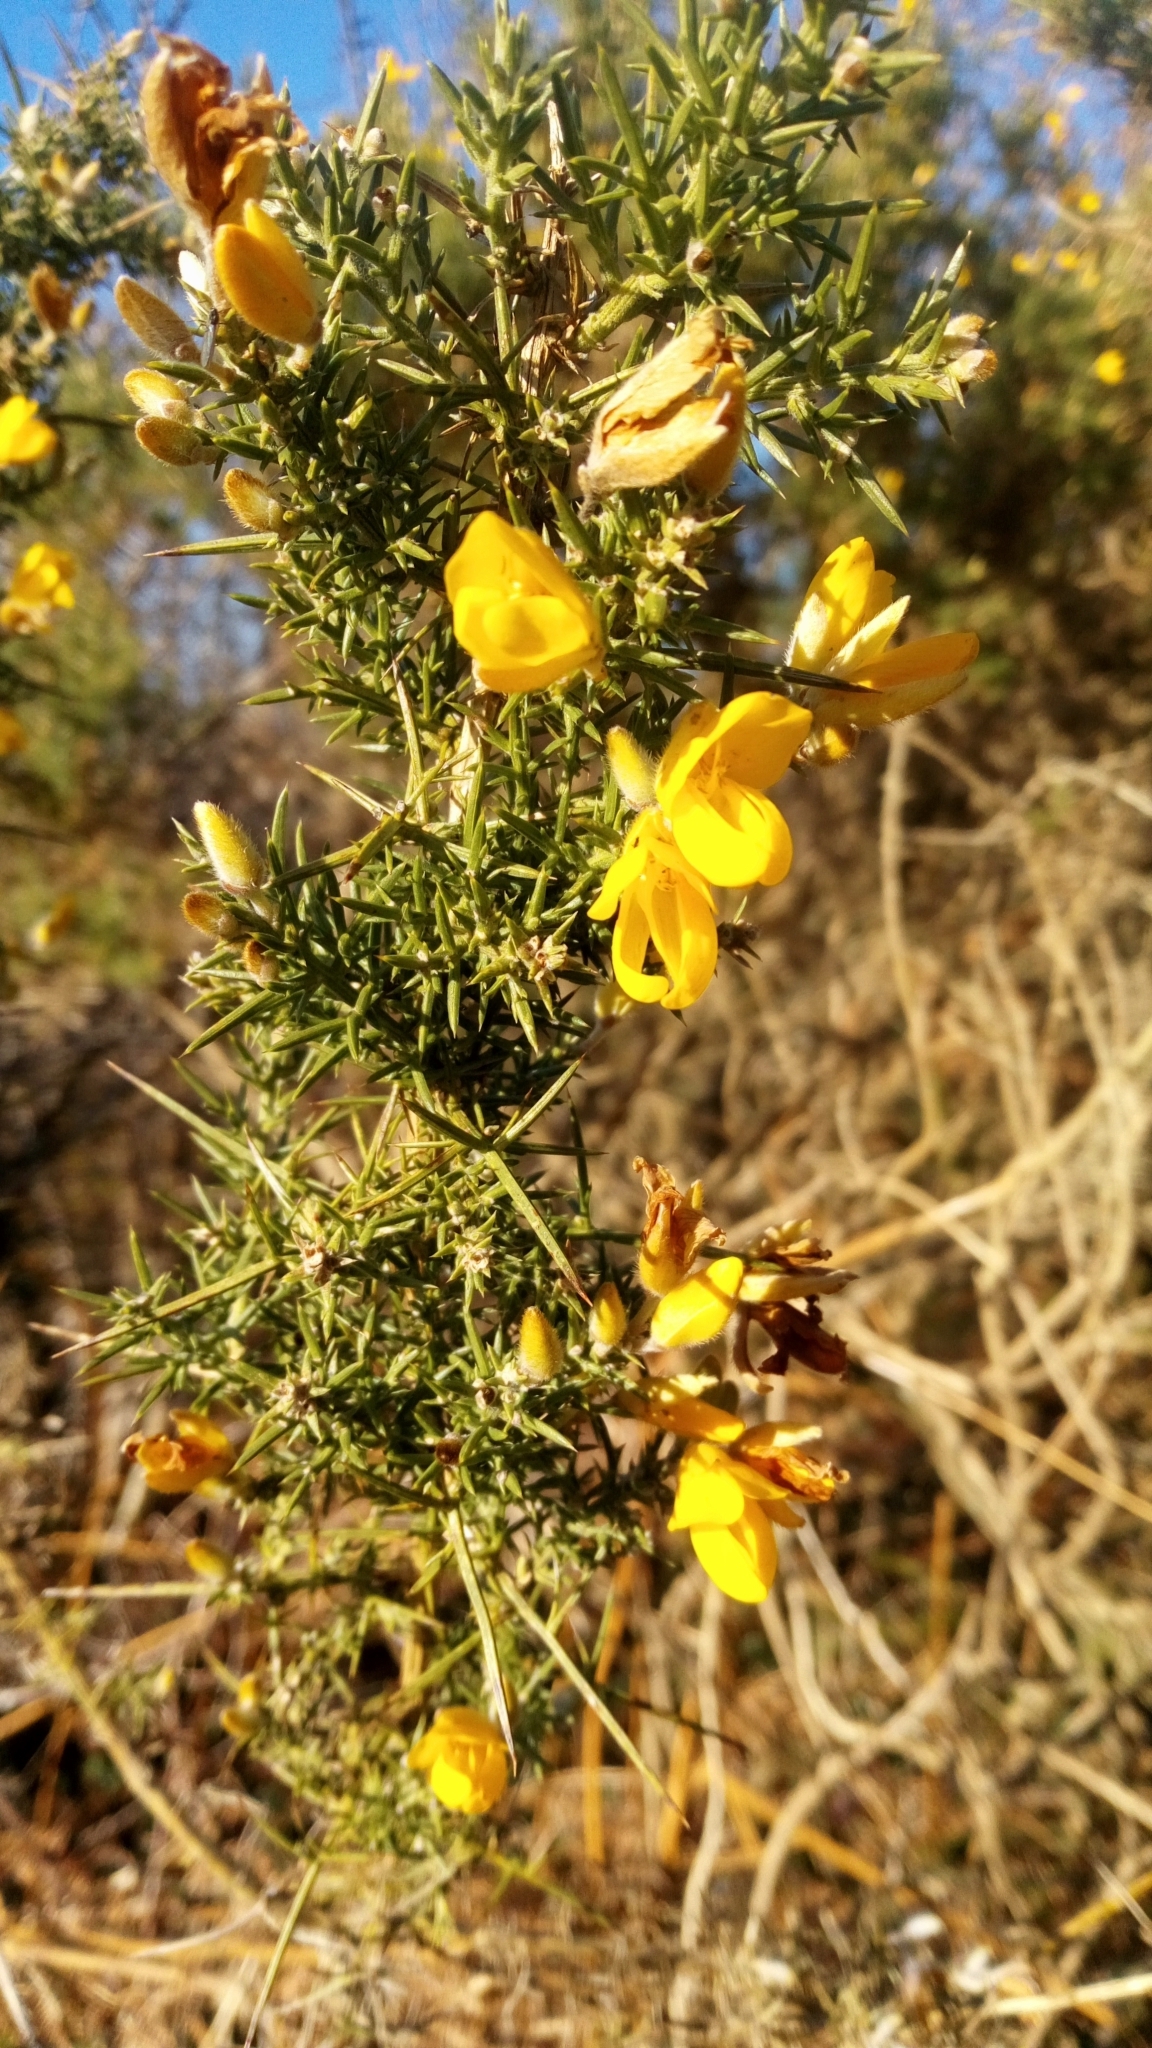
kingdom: Plantae
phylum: Tracheophyta
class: Magnoliopsida
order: Fabales
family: Fabaceae
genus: Ulex
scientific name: Ulex europaeus
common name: Common gorse
